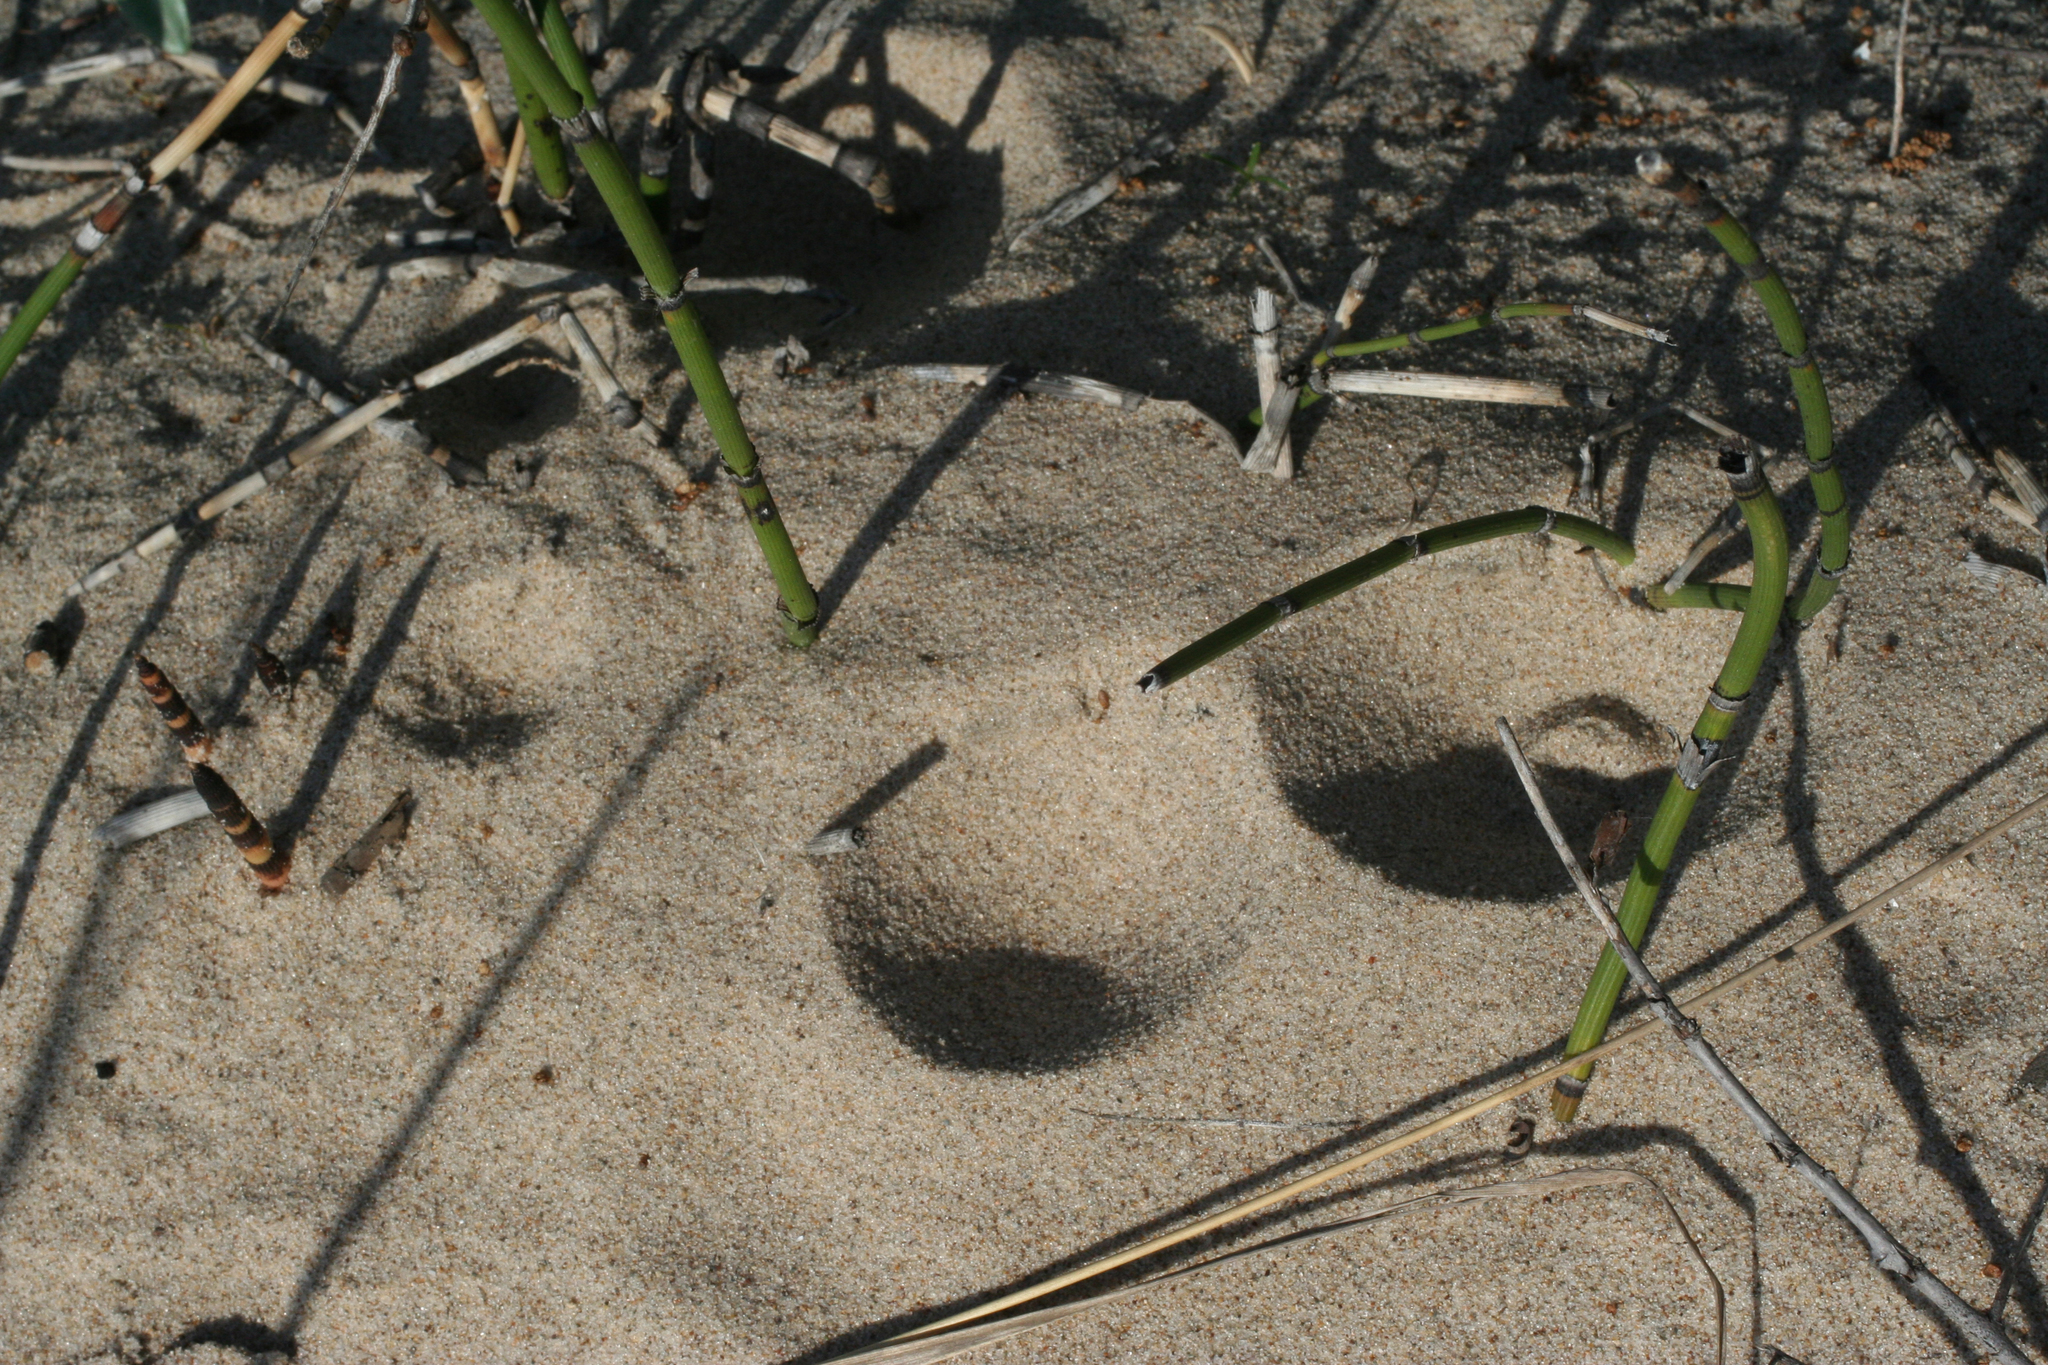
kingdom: Animalia
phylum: Arthropoda
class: Insecta
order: Neuroptera
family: Myrmeleontidae
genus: Myrmeleon
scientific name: Myrmeleon formicarius
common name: Ant-lion
